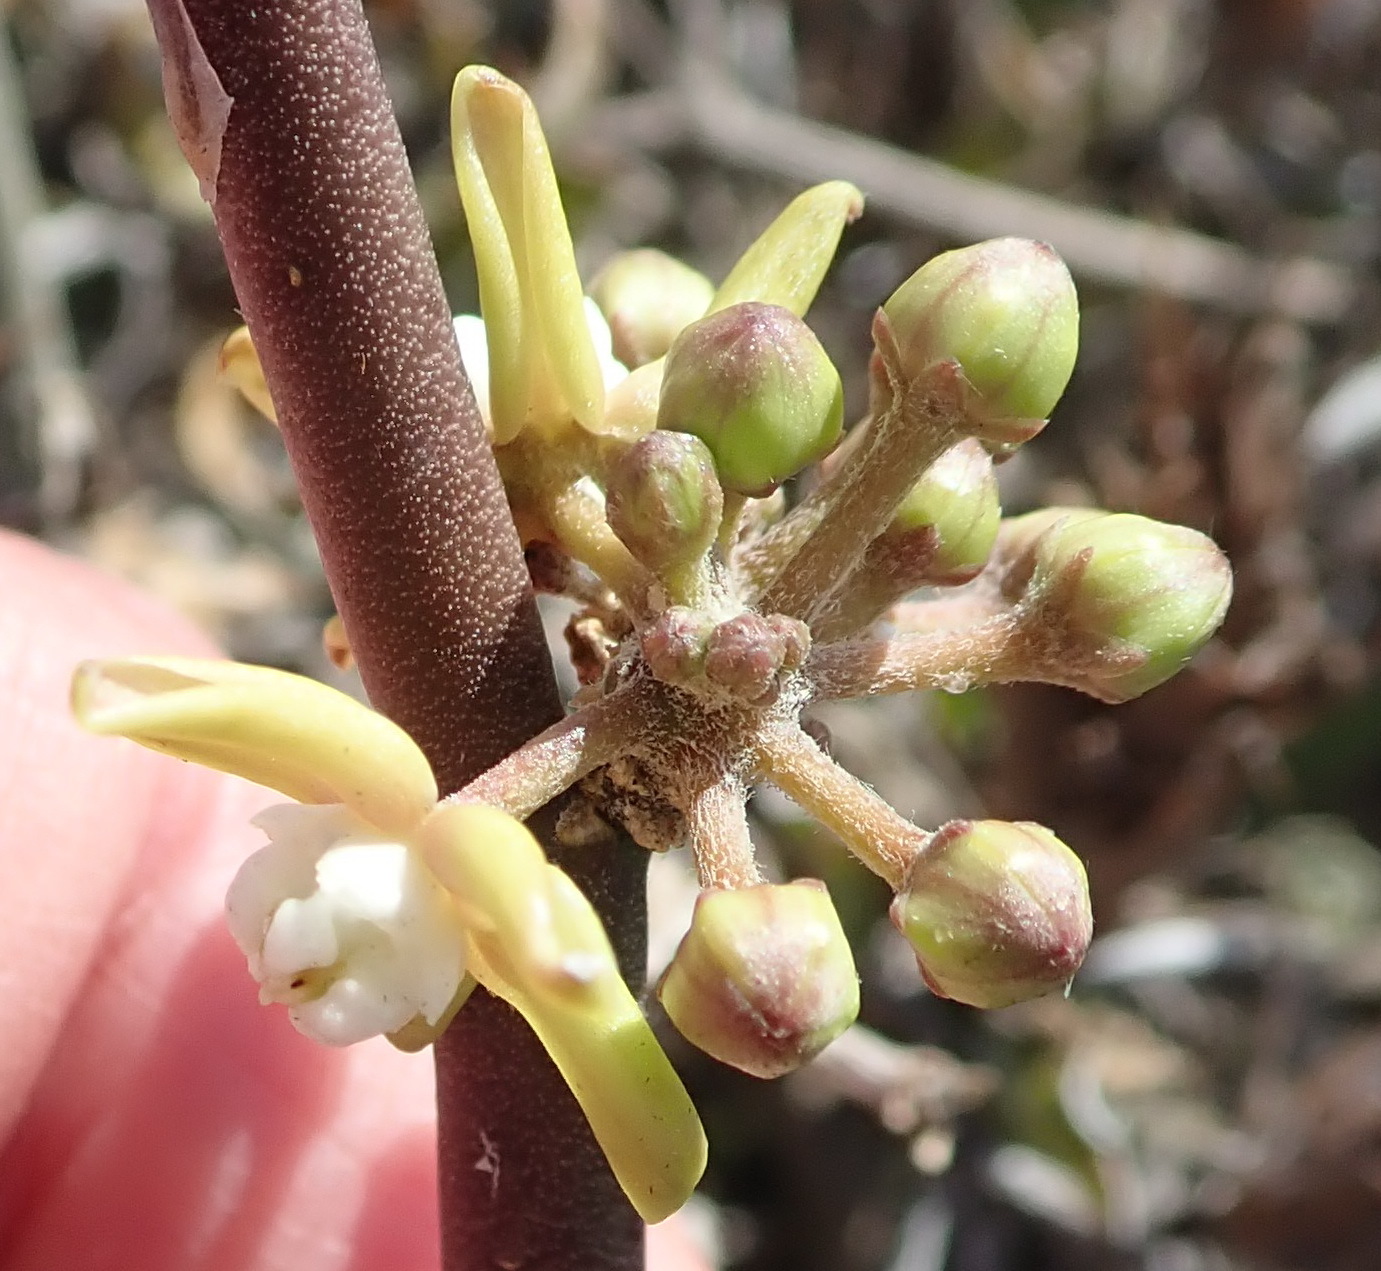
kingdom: Plantae
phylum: Tracheophyta
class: Magnoliopsida
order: Gentianales
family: Apocynaceae
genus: Cynanchum
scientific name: Cynanchum viminale
